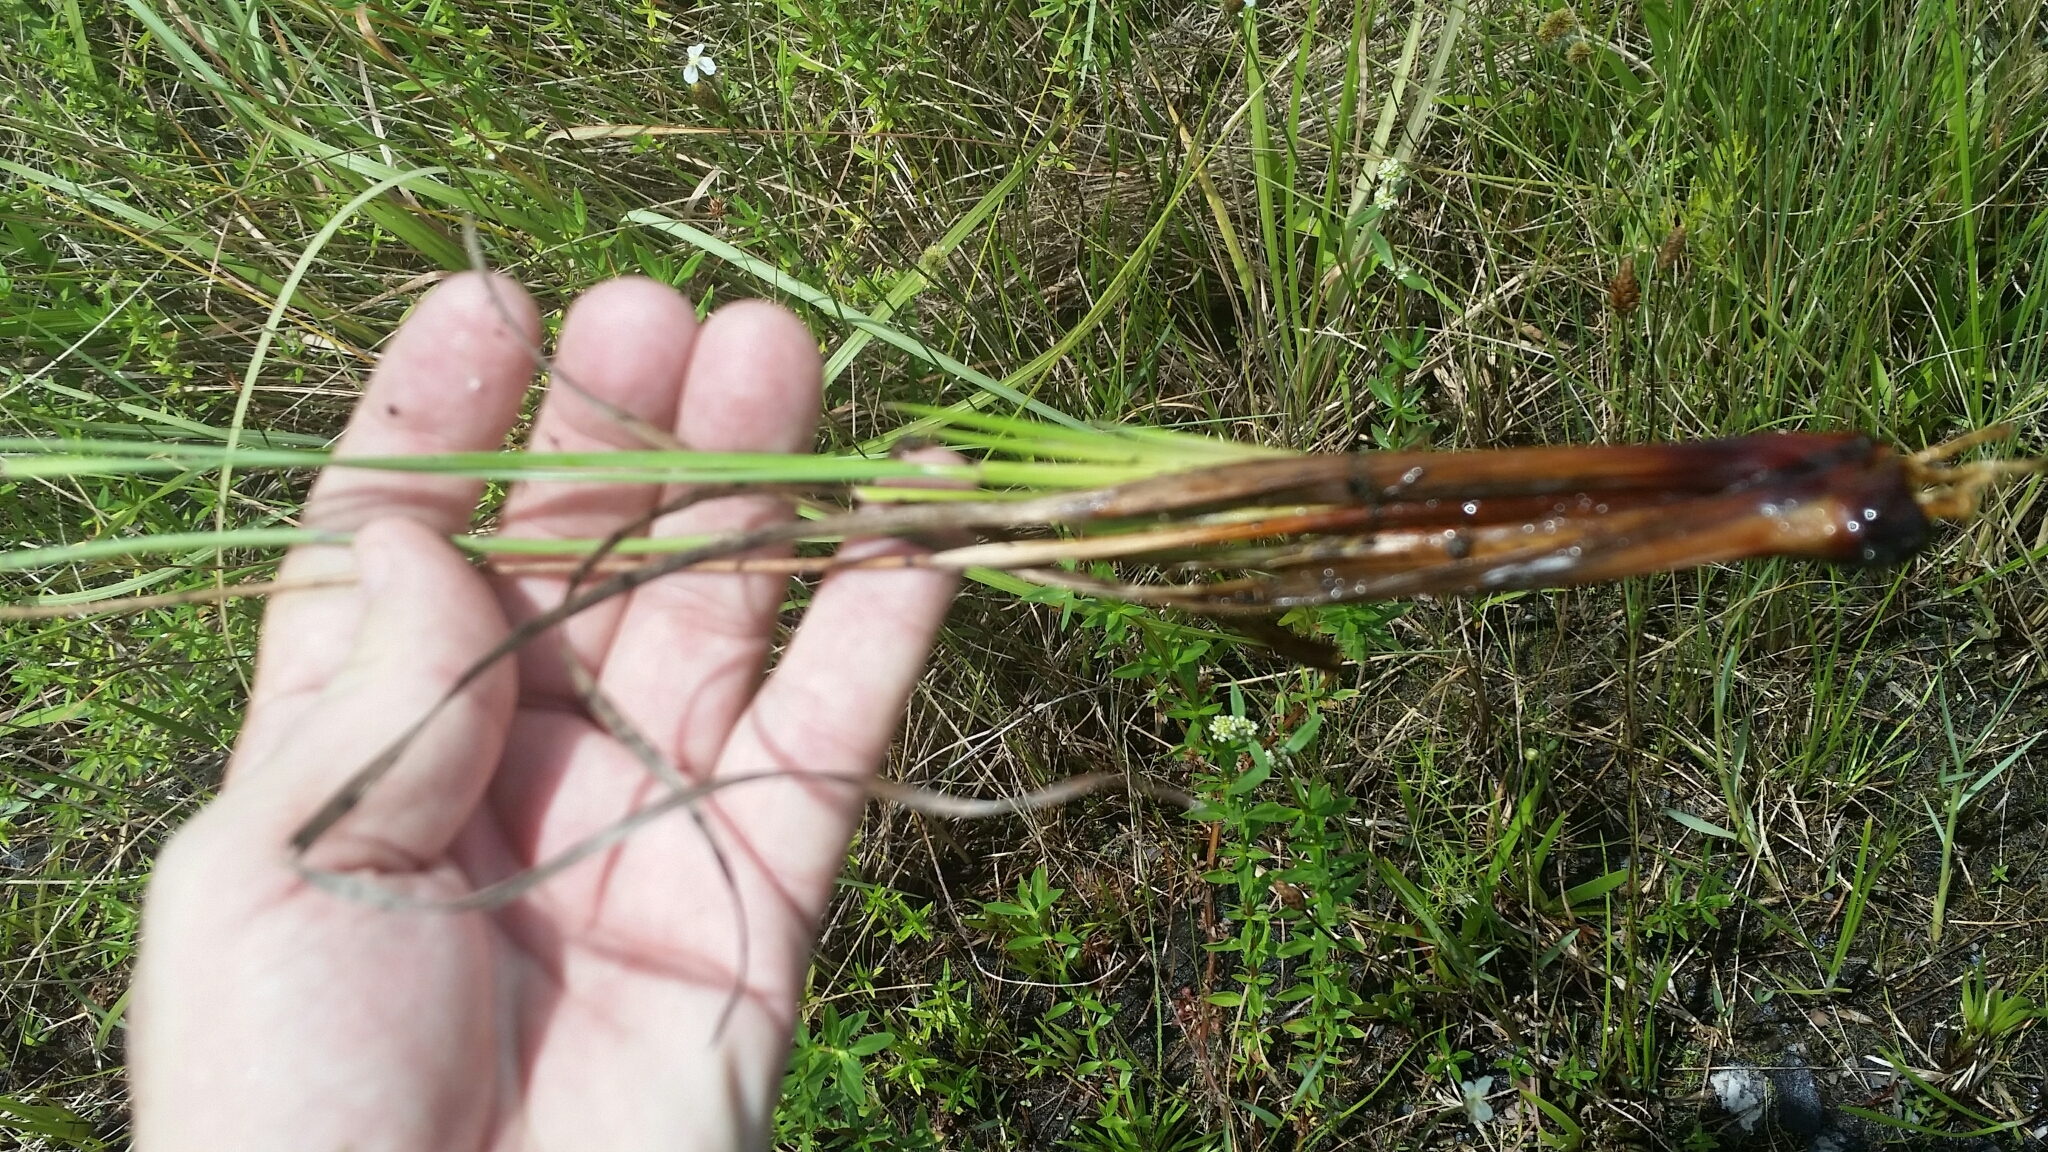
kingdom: Plantae
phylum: Tracheophyta
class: Liliopsida
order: Poales
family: Xyridaceae
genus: Xyris
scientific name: Xyris caroliniana
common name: Carolina yellow-eyed-grass
